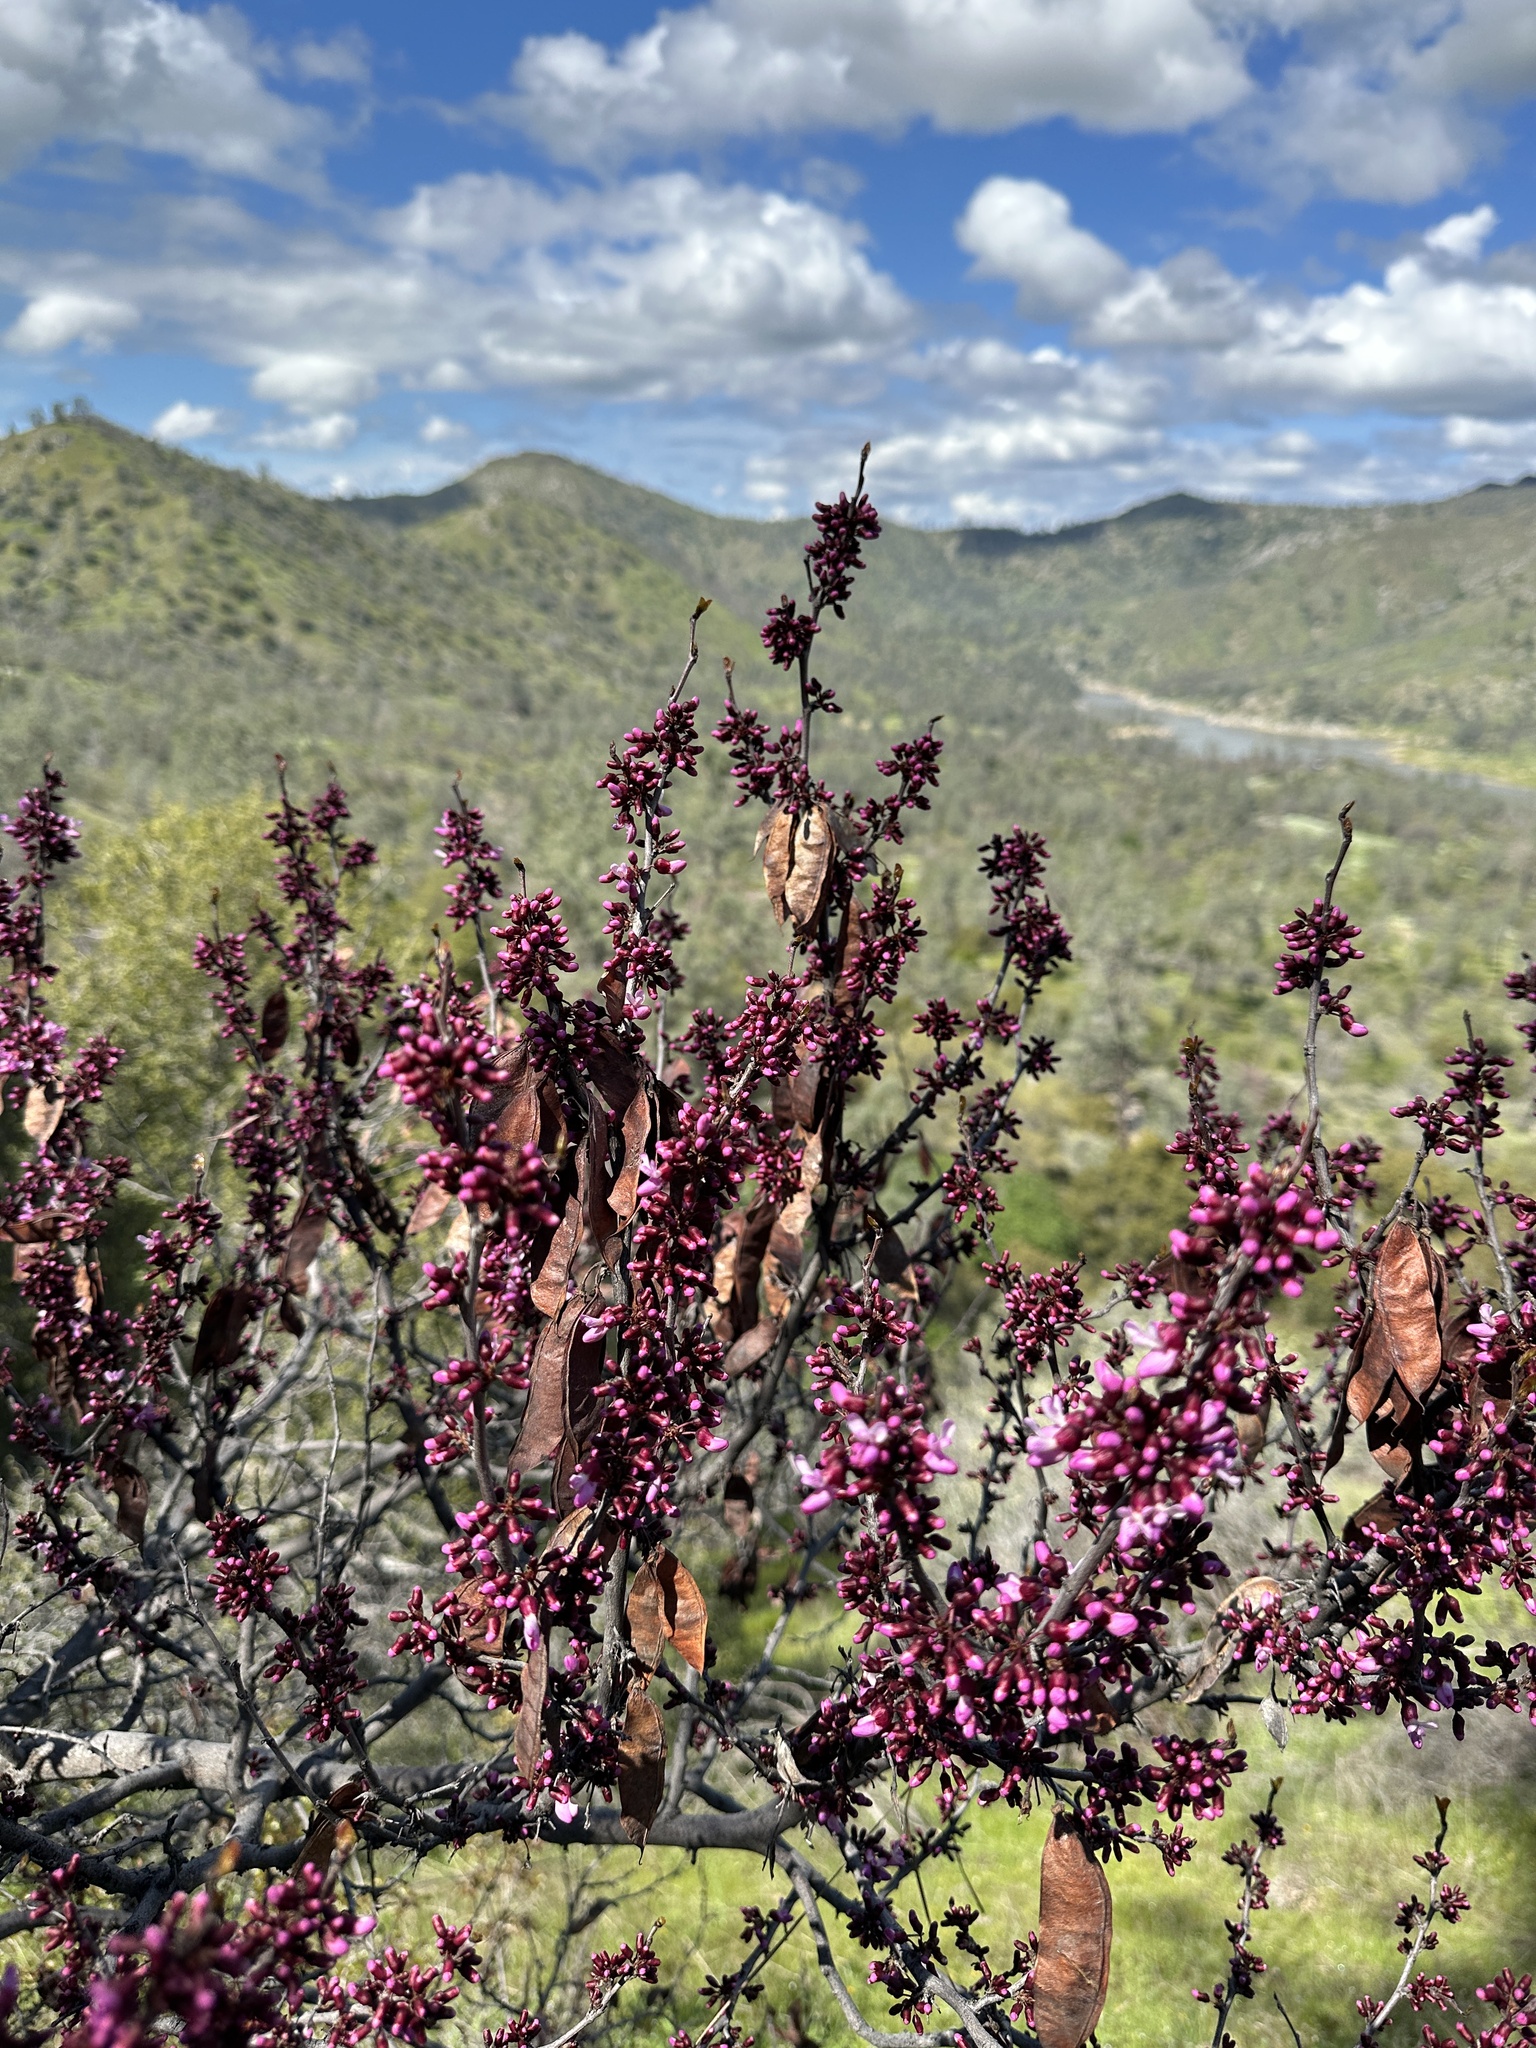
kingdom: Plantae
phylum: Tracheophyta
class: Magnoliopsida
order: Fabales
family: Fabaceae
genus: Cercis
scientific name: Cercis occidentalis
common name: California redbud
